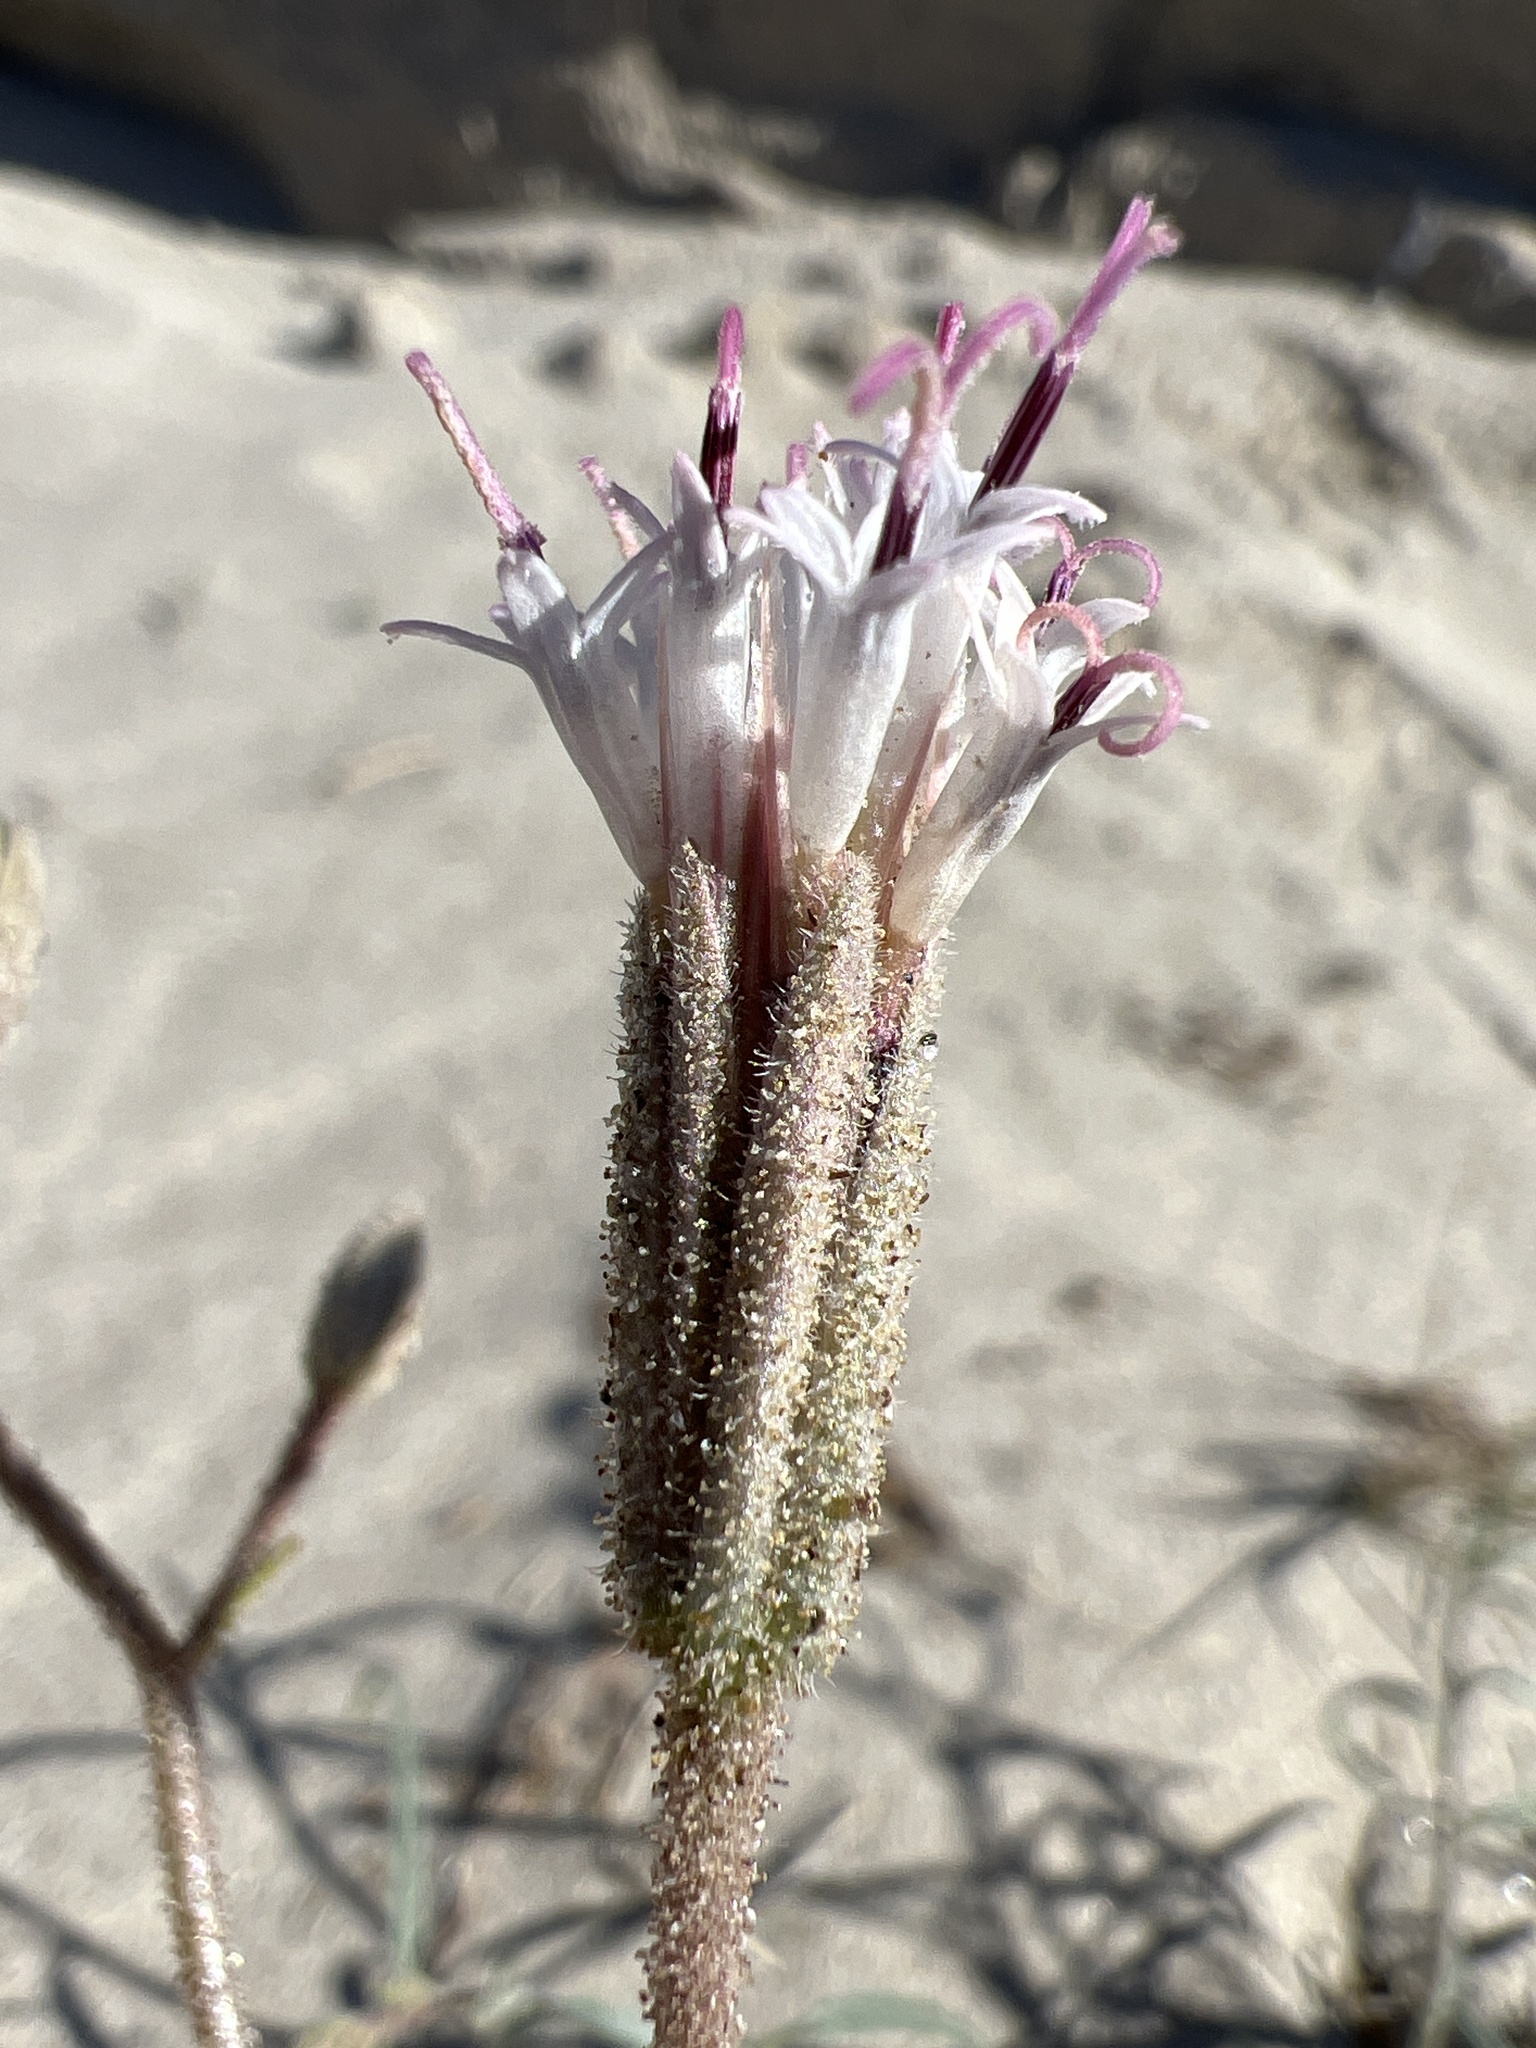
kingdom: Plantae
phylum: Tracheophyta
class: Magnoliopsida
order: Asterales
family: Asteraceae
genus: Palafoxia
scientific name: Palafoxia arida
